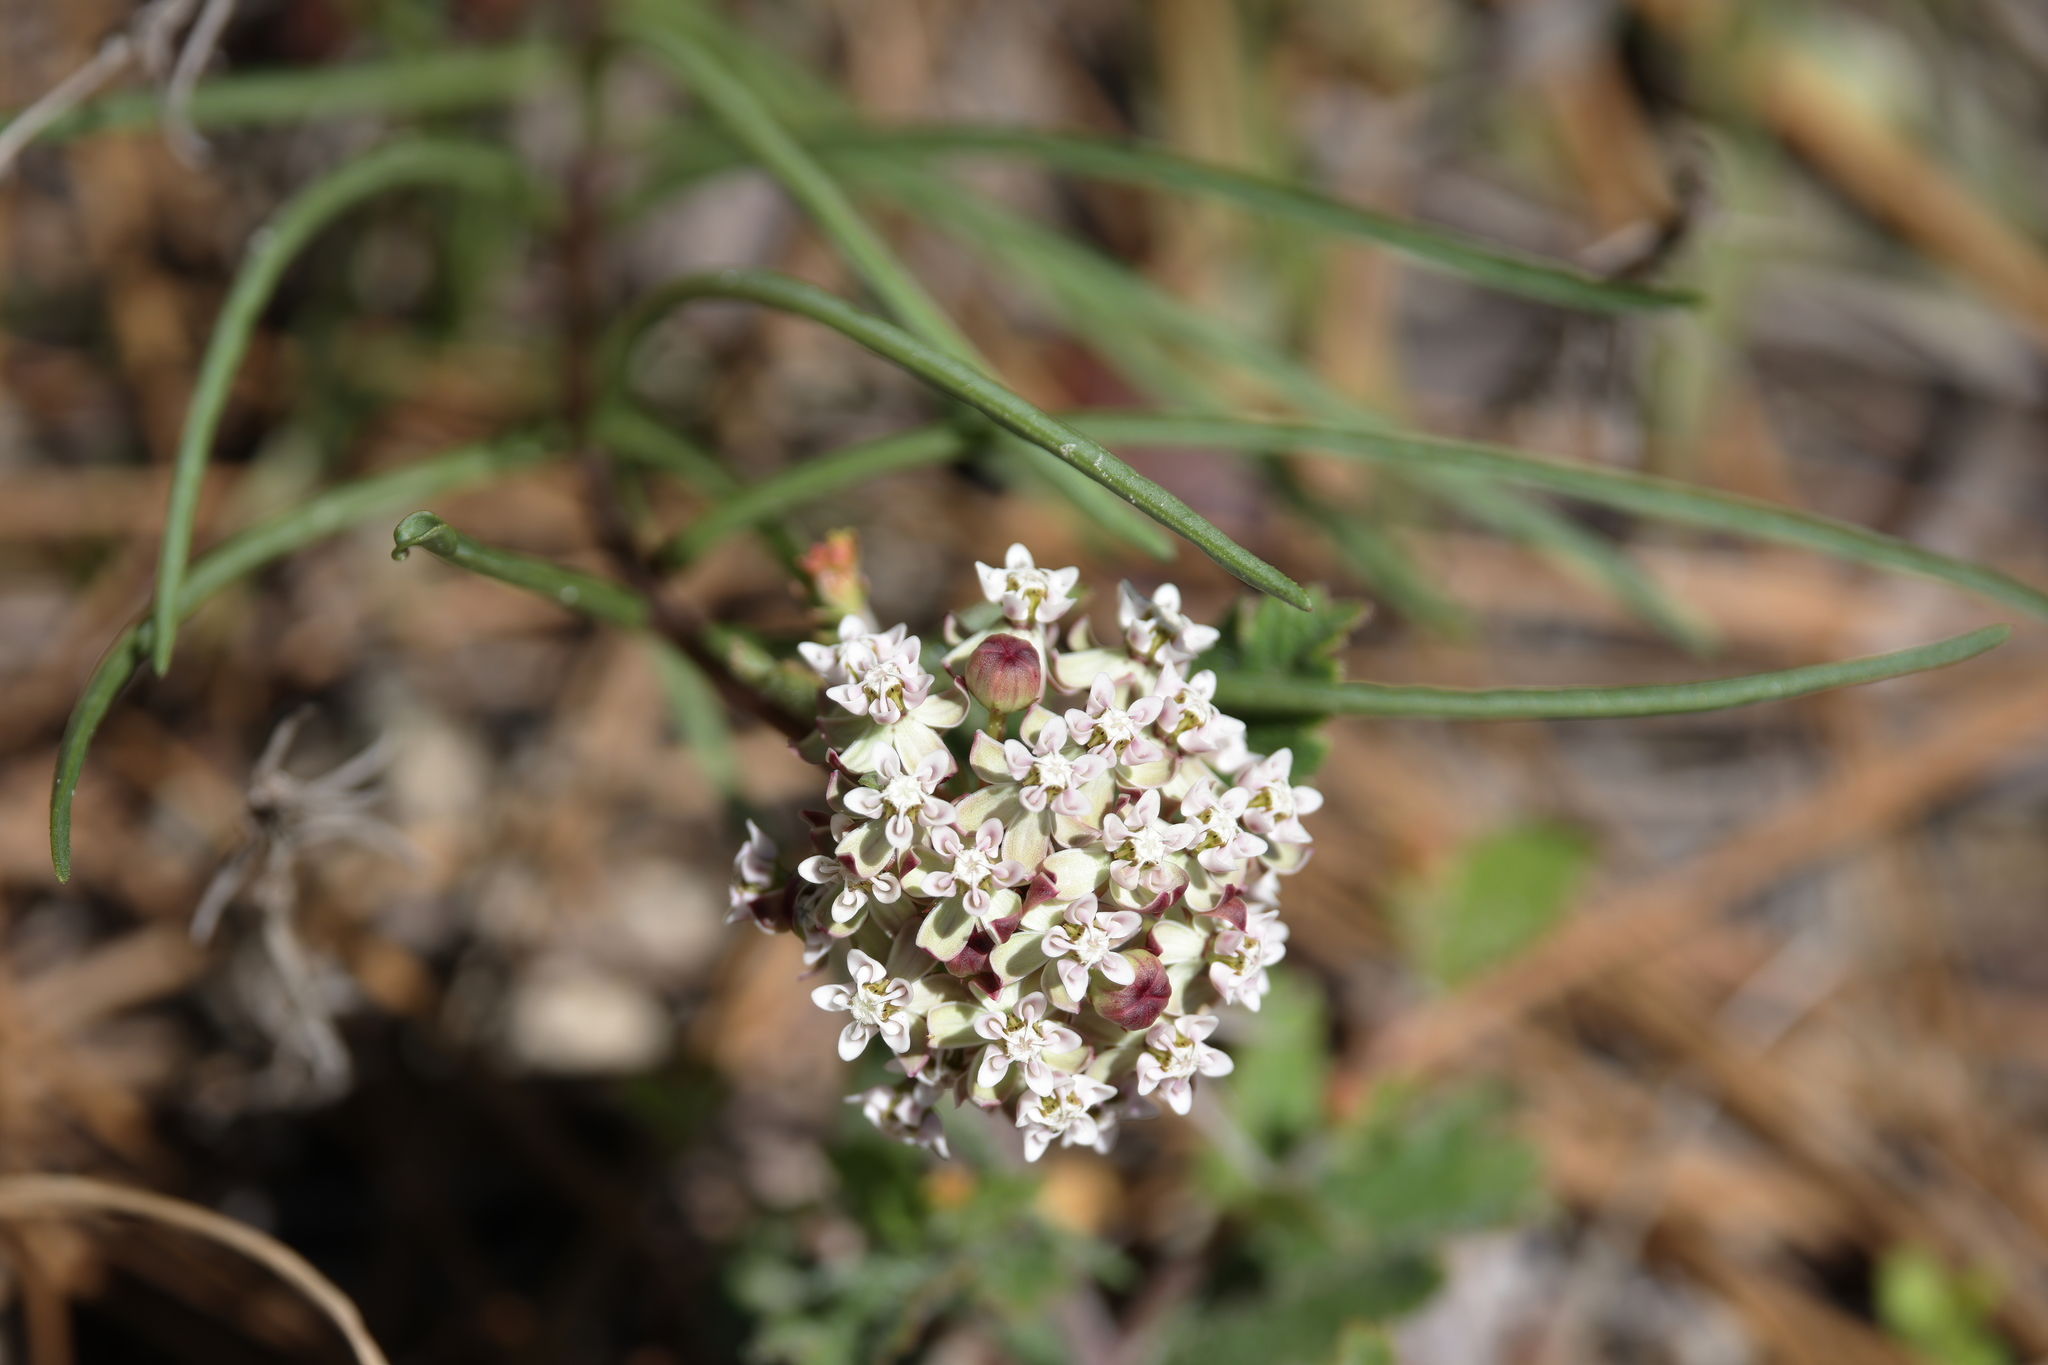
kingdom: Plantae
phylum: Tracheophyta
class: Magnoliopsida
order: Gentianales
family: Apocynaceae
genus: Asclepias
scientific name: Asclepias michauxii
